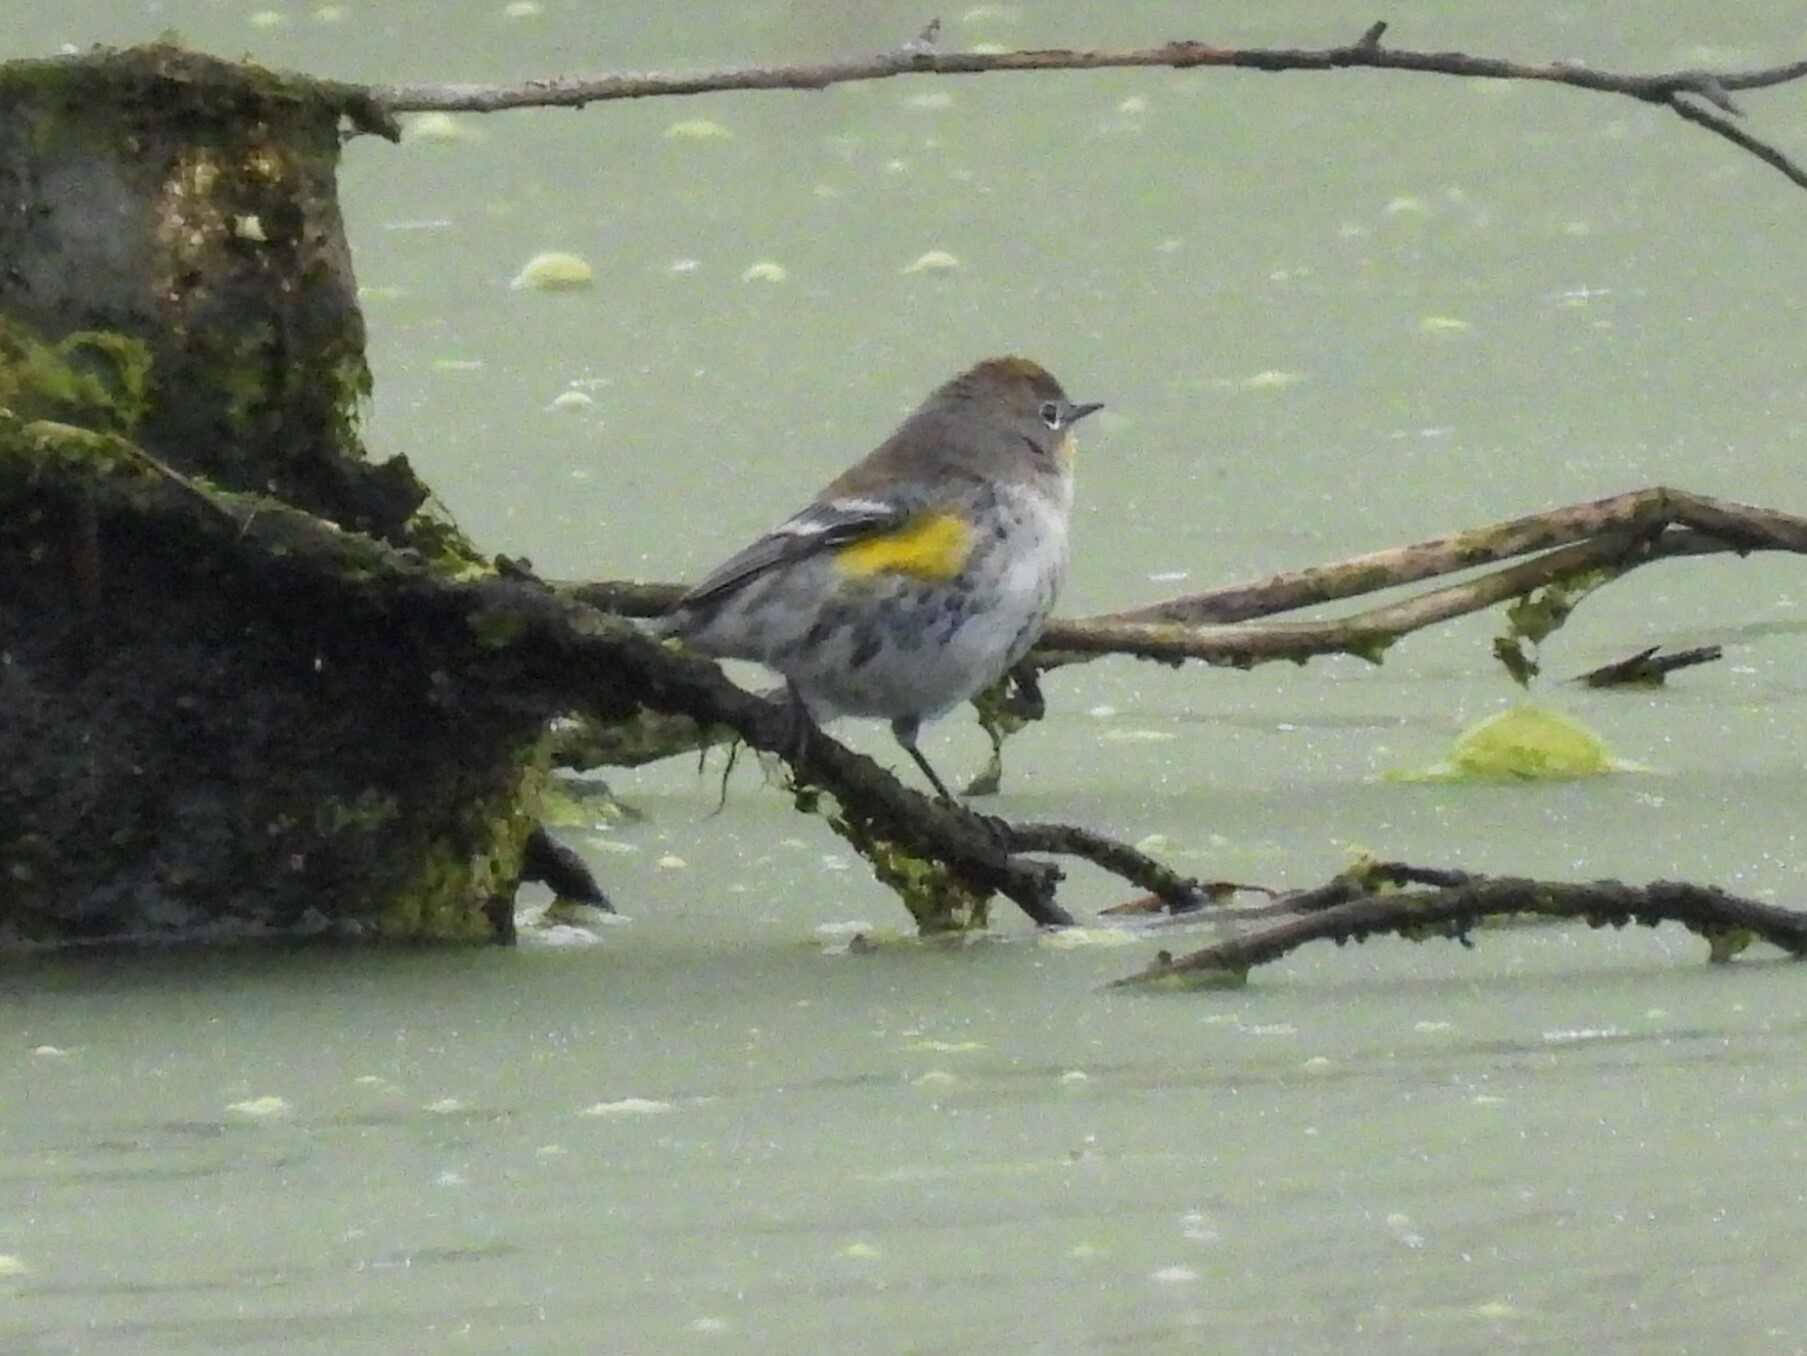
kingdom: Animalia
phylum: Chordata
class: Aves
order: Passeriformes
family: Parulidae
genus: Setophaga
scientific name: Setophaga coronata
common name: Myrtle warbler
